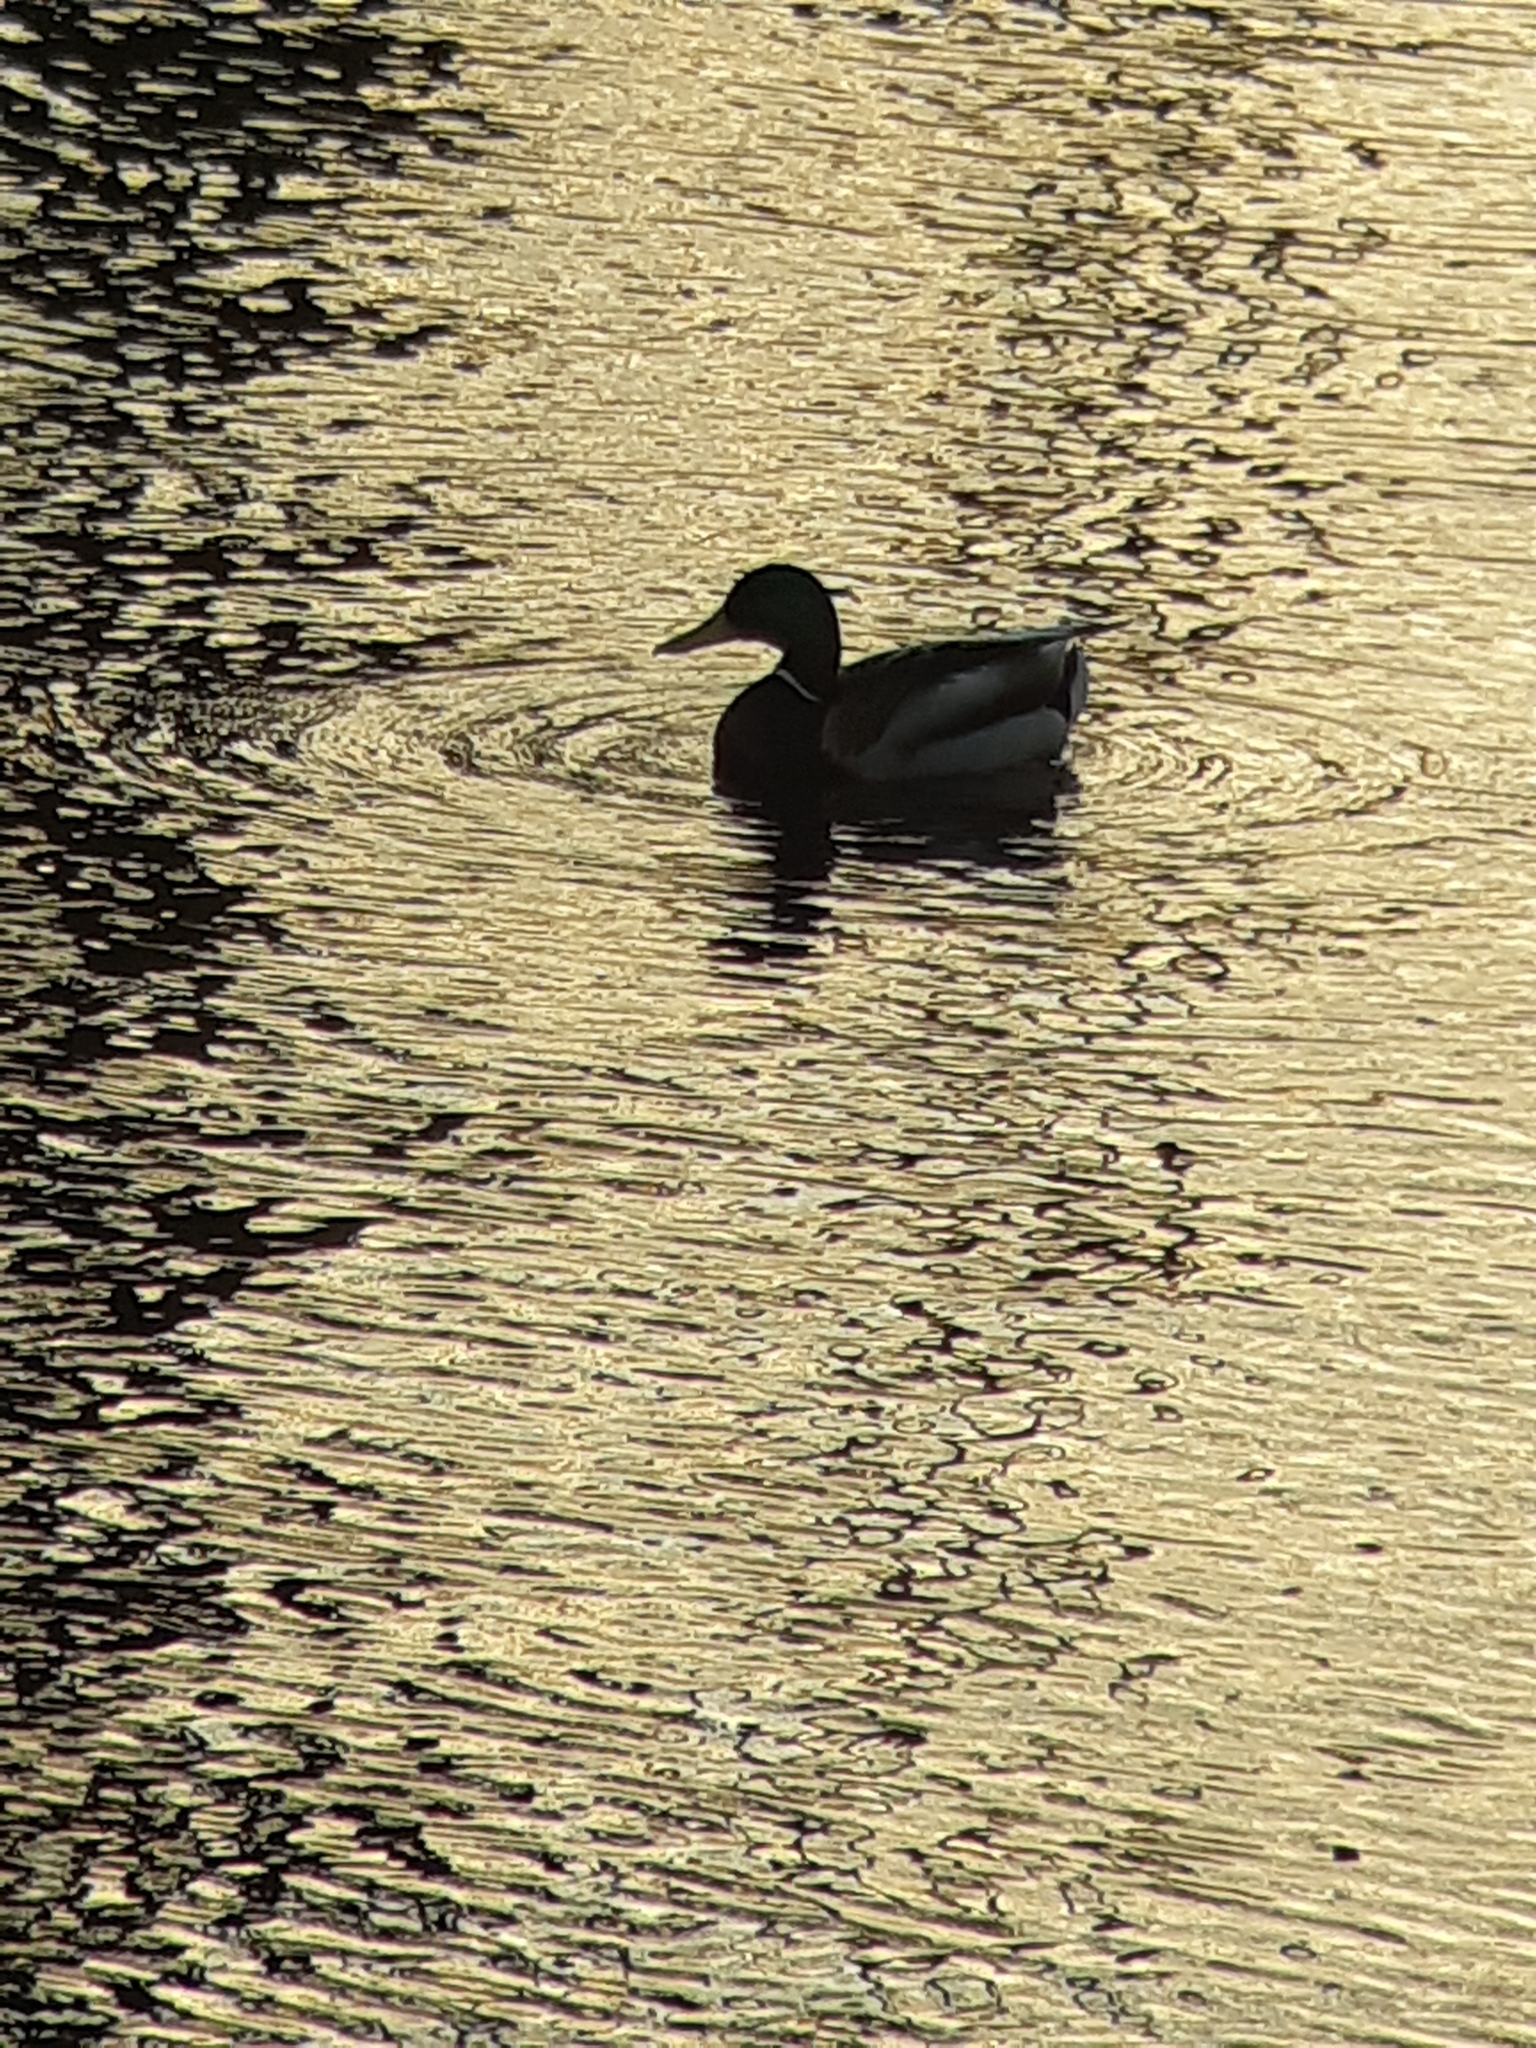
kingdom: Animalia
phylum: Chordata
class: Aves
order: Anseriformes
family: Anatidae
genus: Anas
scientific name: Anas platyrhynchos
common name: Mallard
